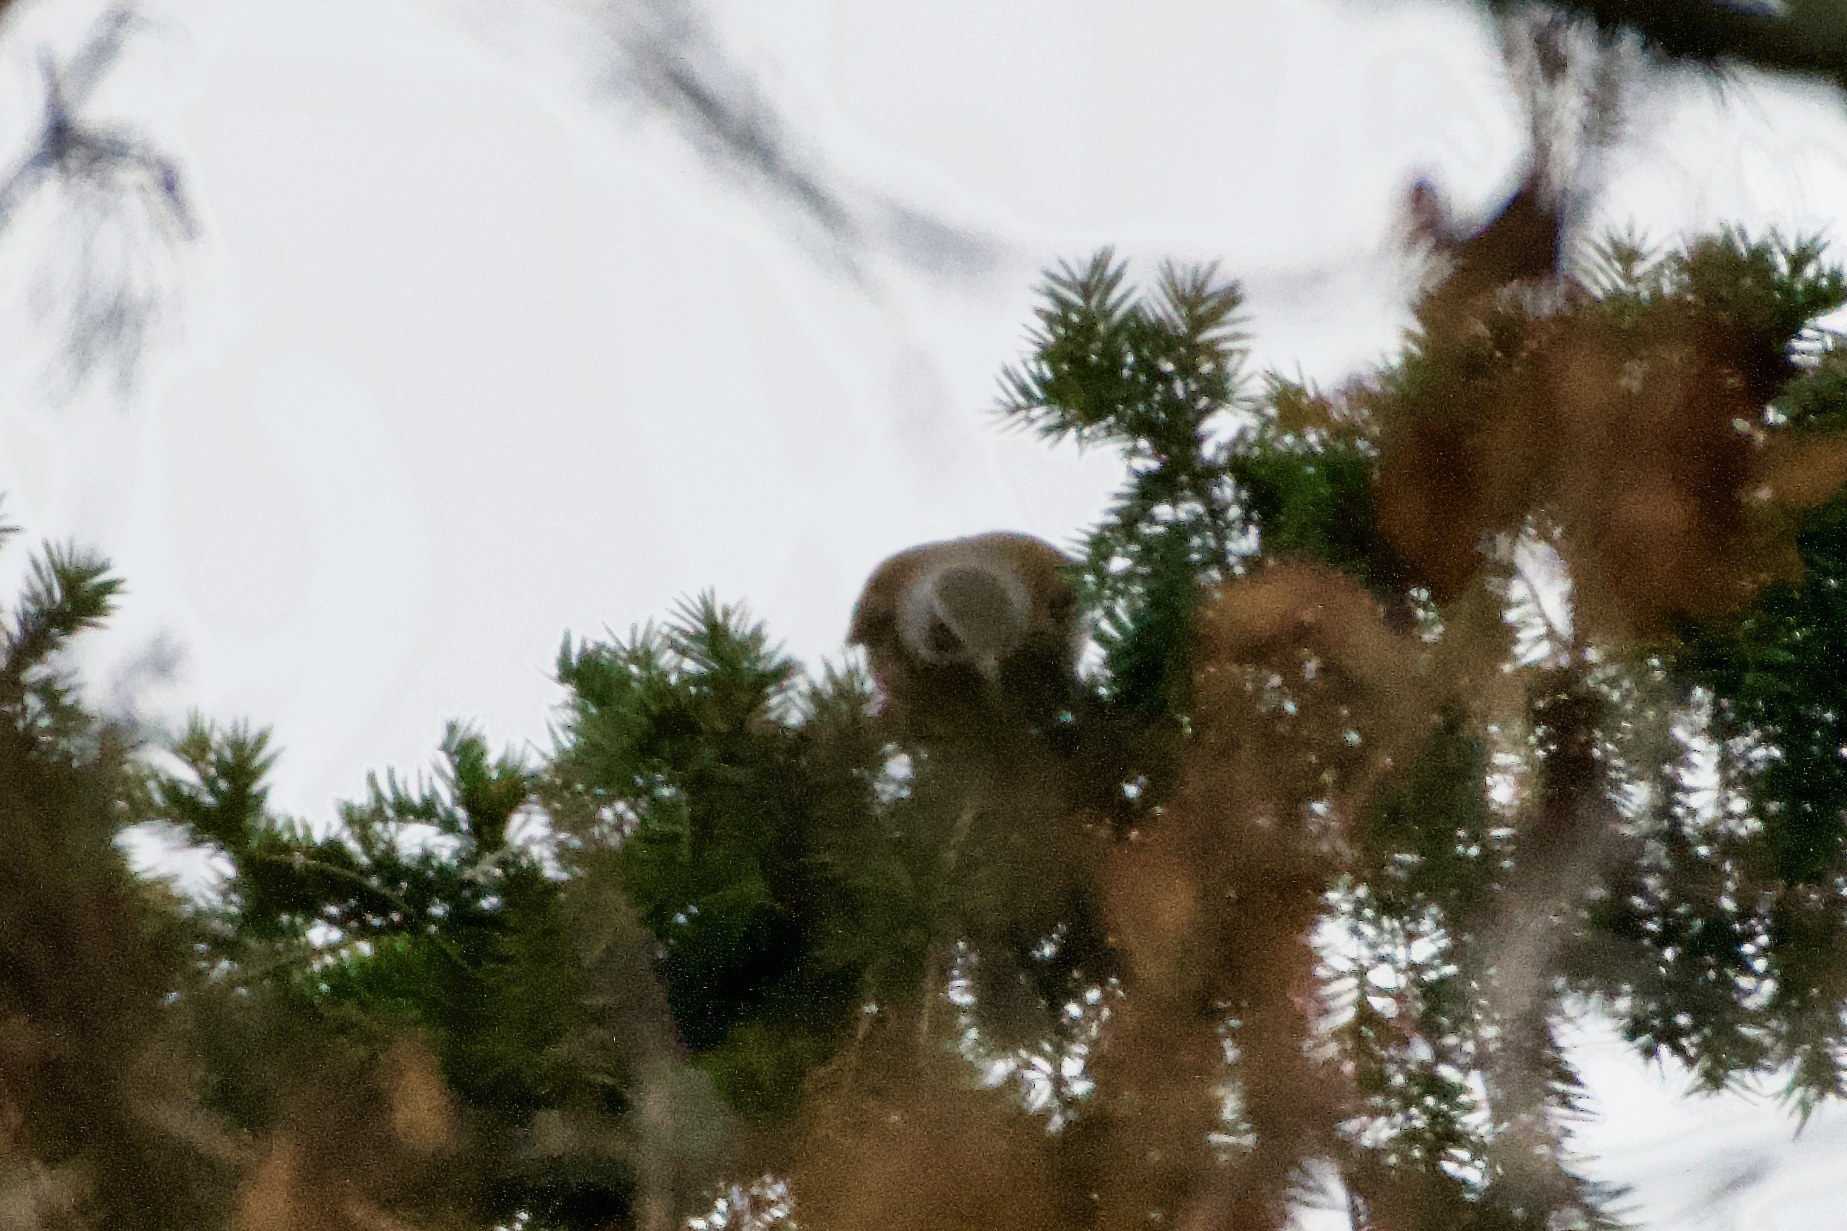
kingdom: Animalia
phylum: Chordata
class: Aves
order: Passeriformes
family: Turdidae
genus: Turdus
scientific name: Turdus pilaris
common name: Fieldfare
